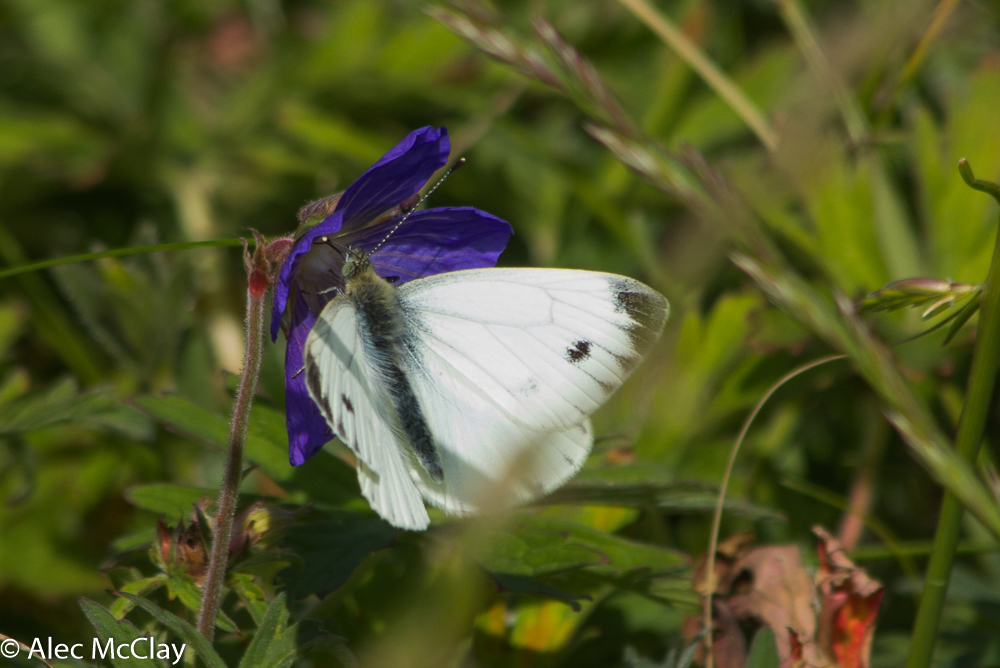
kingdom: Animalia
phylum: Arthropoda
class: Insecta
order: Lepidoptera
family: Pieridae
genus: Pieris
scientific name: Pieris napi
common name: Green-veined white
